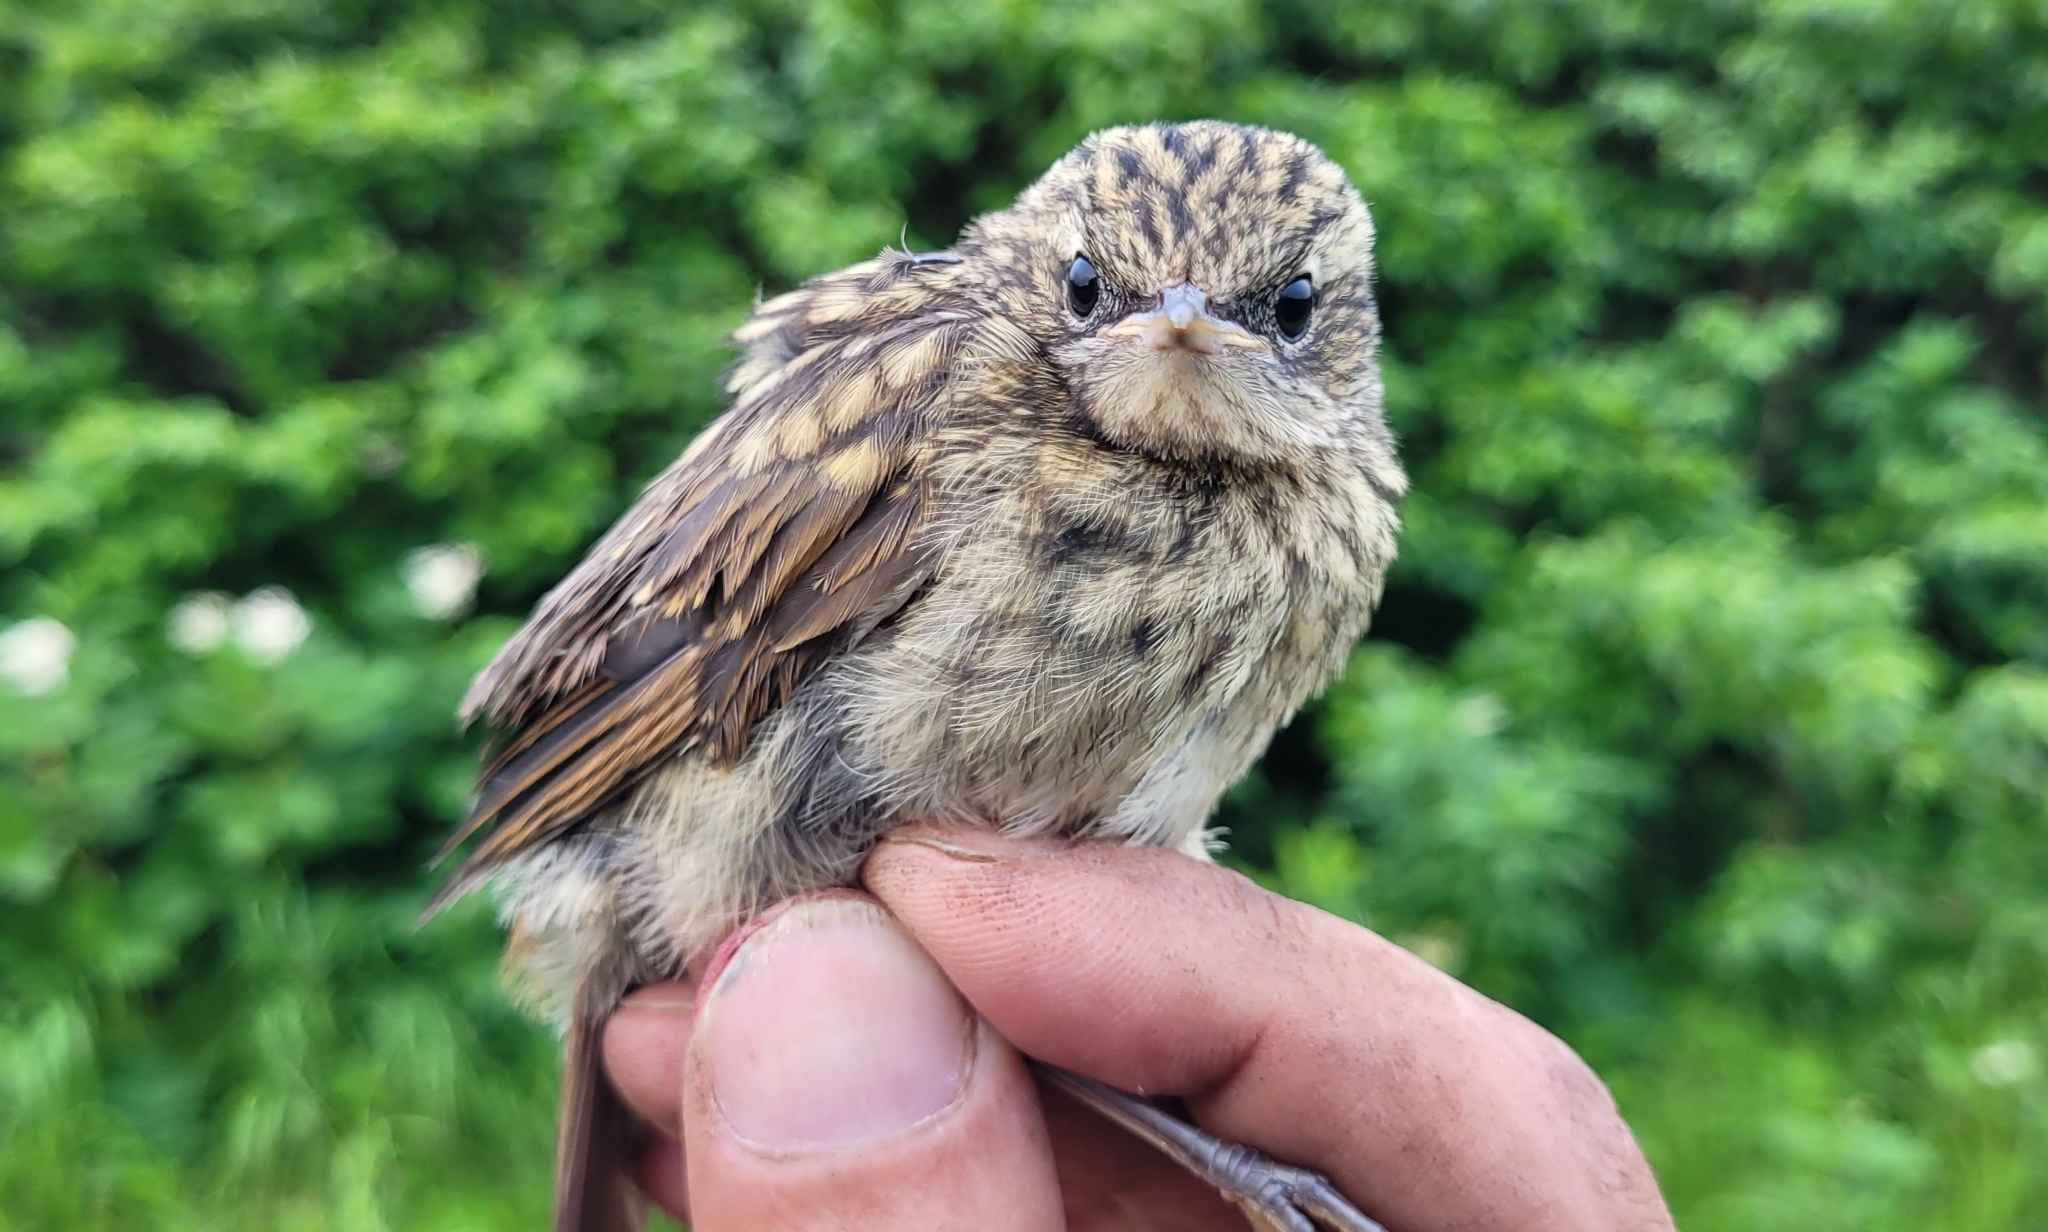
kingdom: Animalia
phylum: Chordata
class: Aves
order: Passeriformes
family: Muscicapidae
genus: Luscinia
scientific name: Luscinia calliope
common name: Siberian rubythroat
